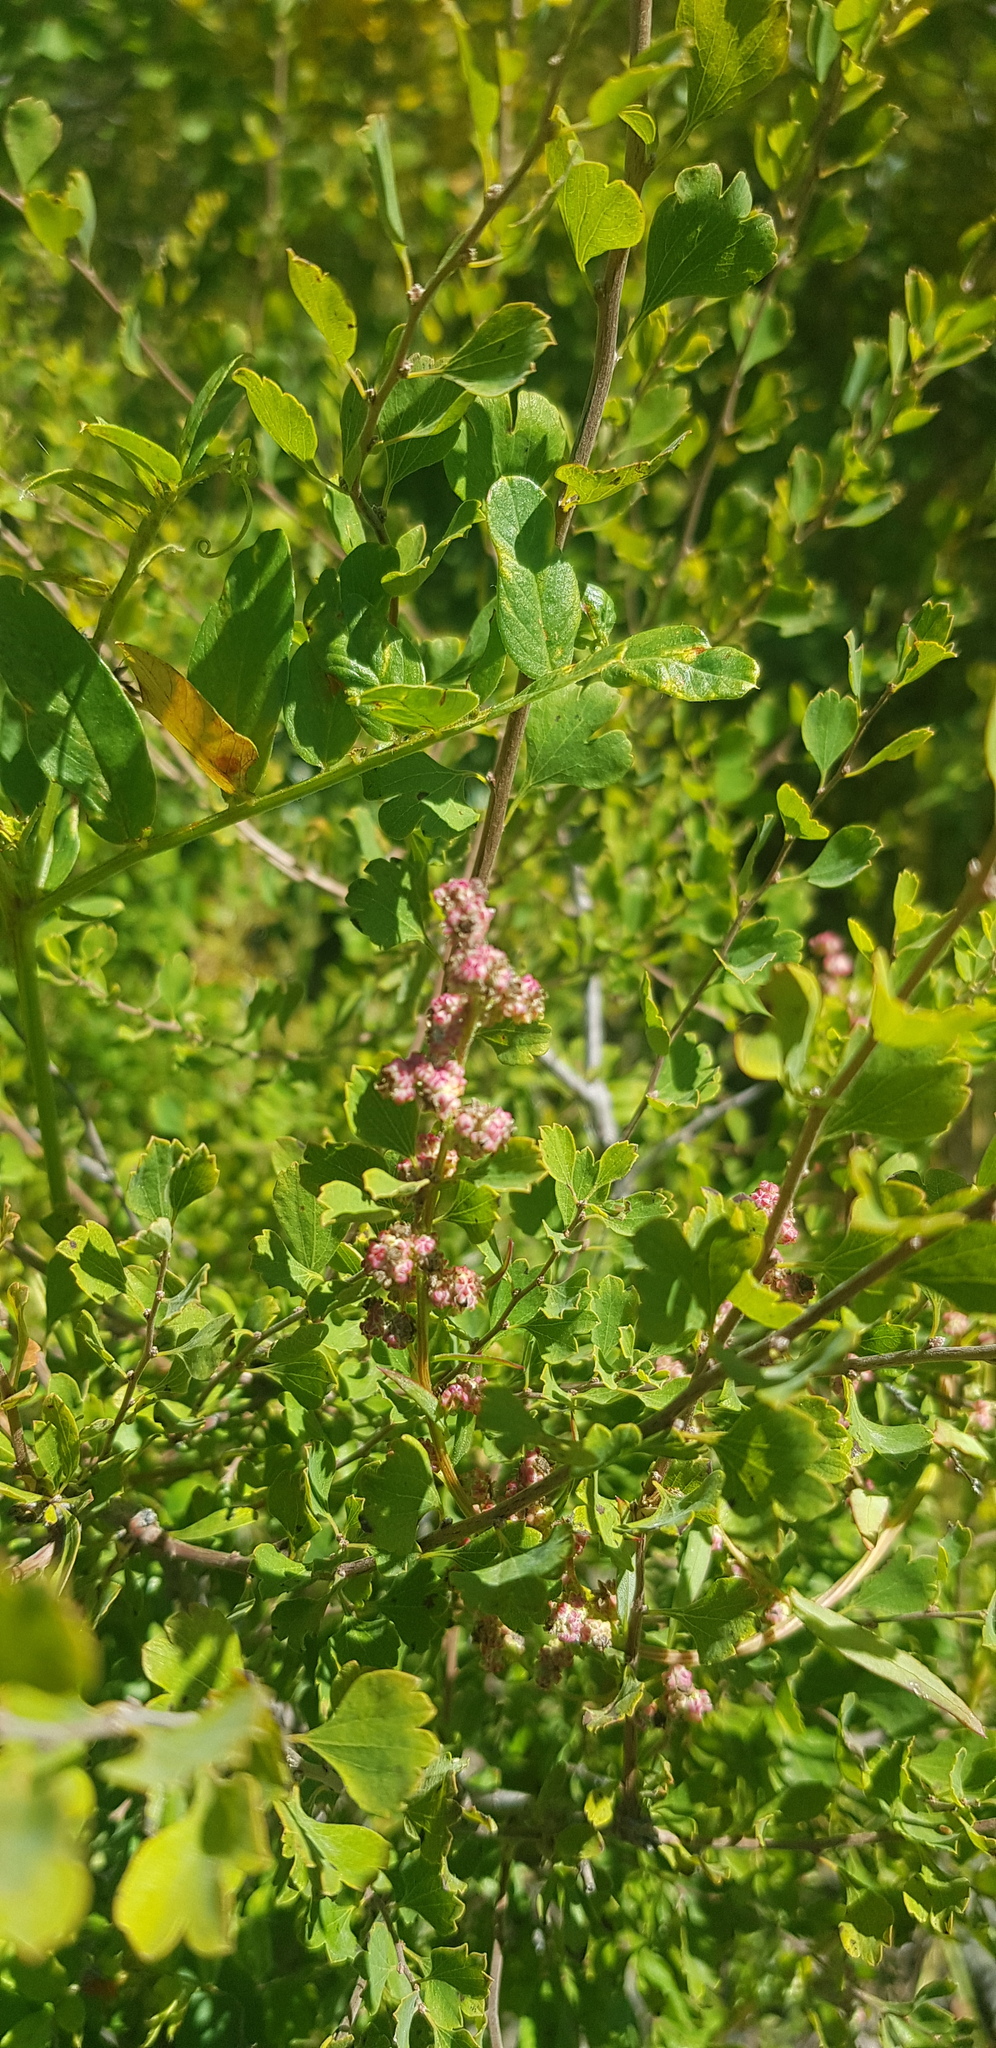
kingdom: Plantae
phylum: Tracheophyta
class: Magnoliopsida
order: Rosales
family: Rosaceae
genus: Spiraea
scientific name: Spiraea aquilegifolia
